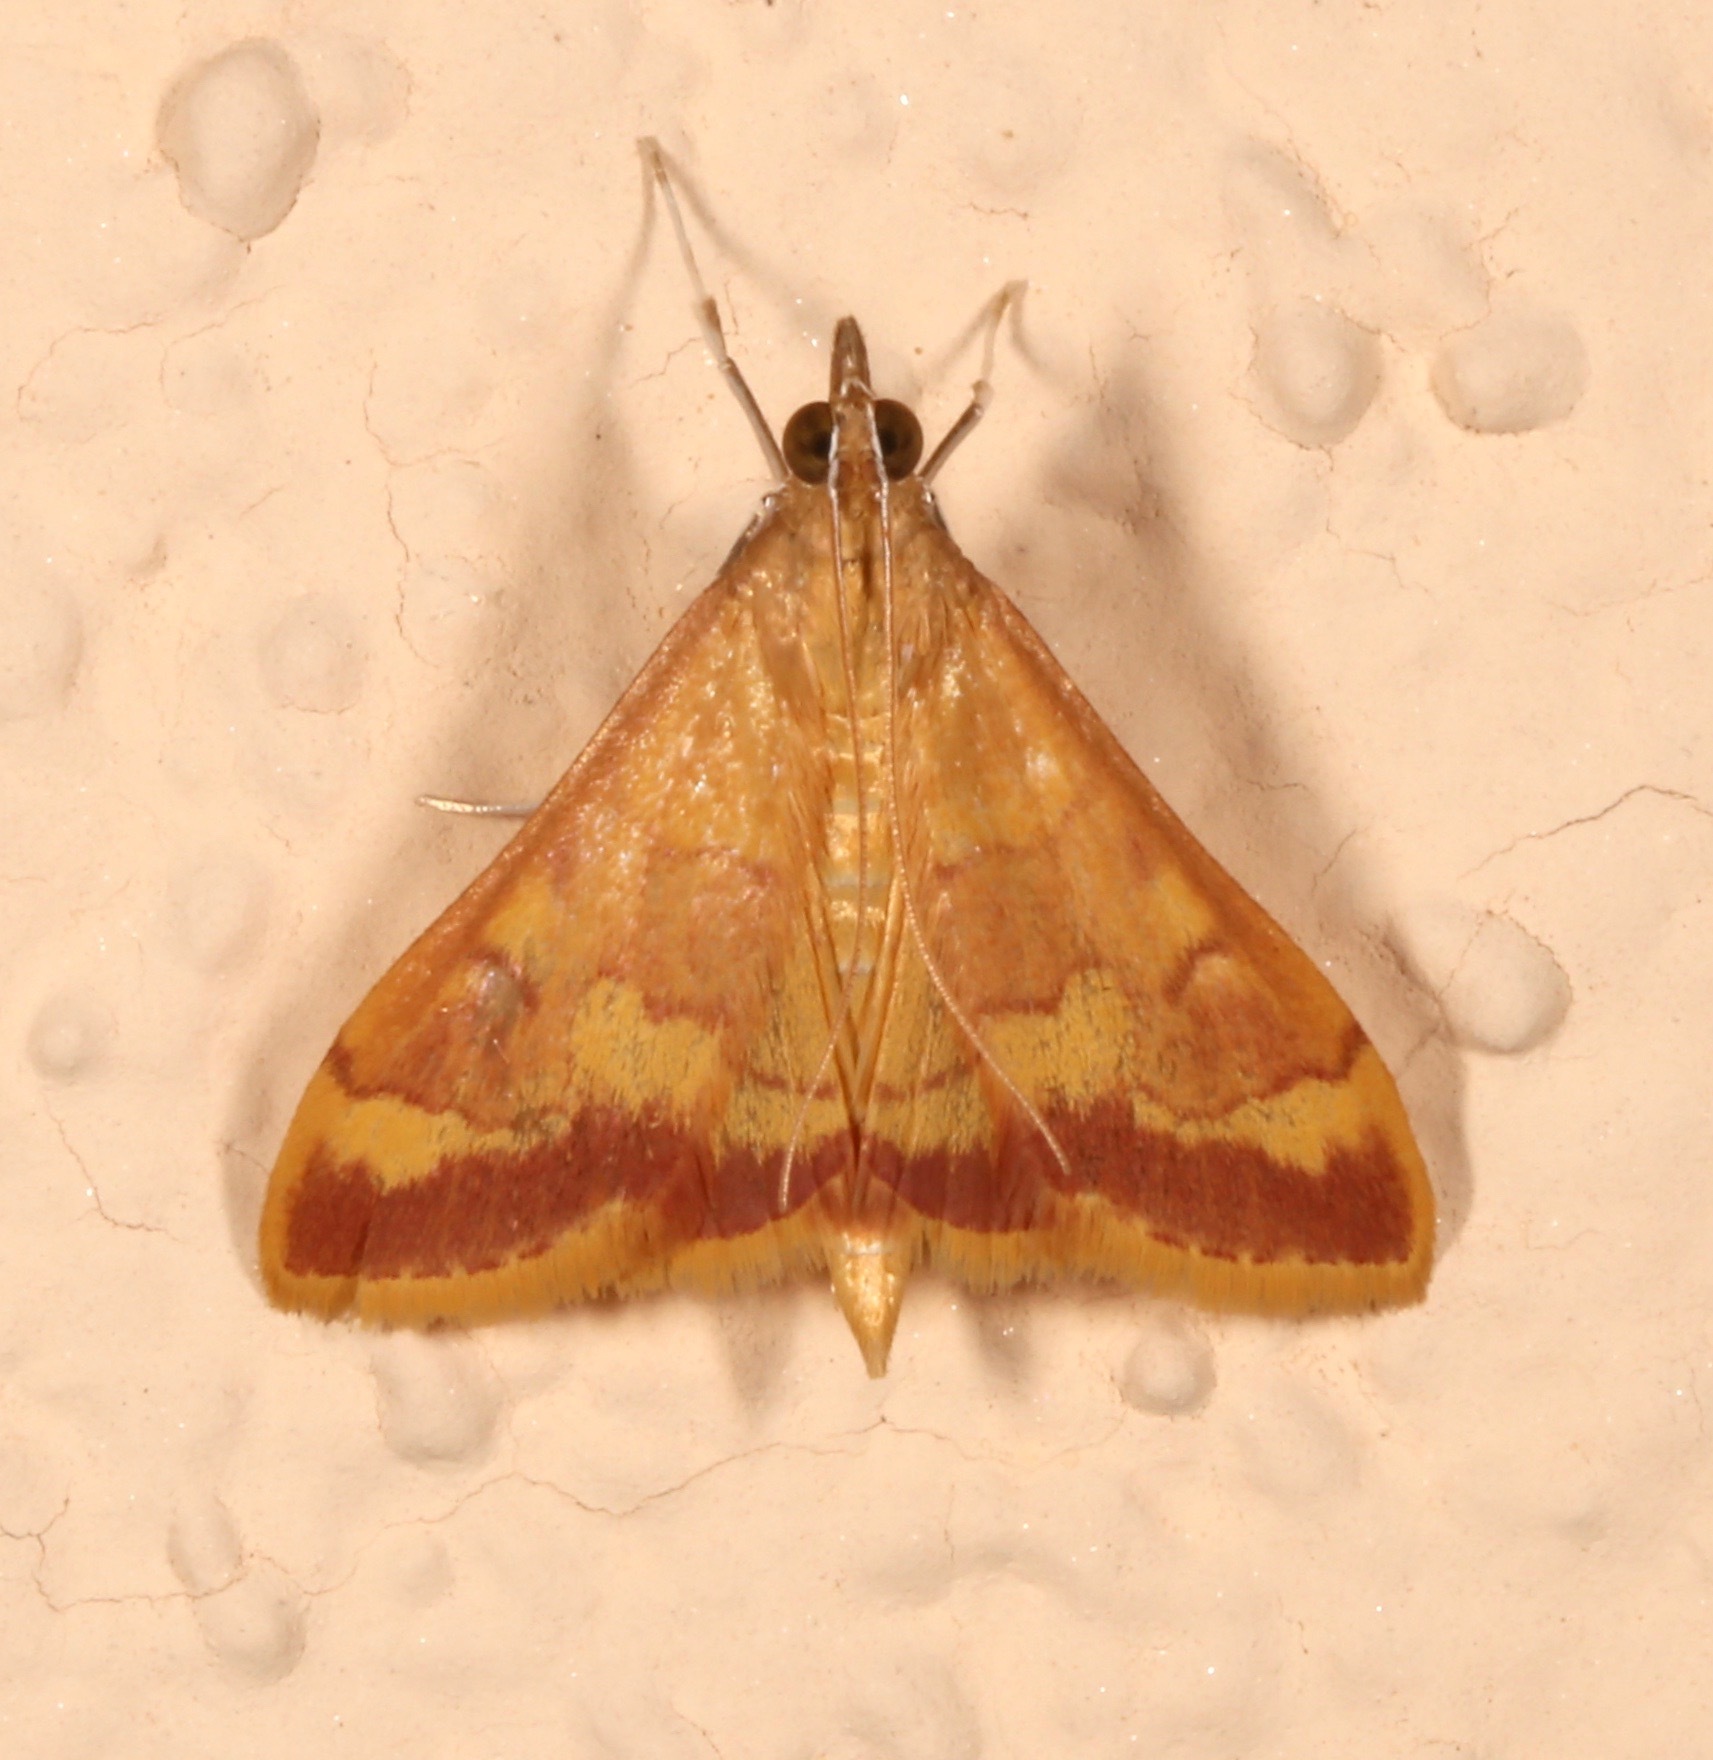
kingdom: Animalia
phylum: Arthropoda
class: Insecta
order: Lepidoptera
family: Crambidae
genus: Pyrausta
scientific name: Pyrausta pseudonythesalis
